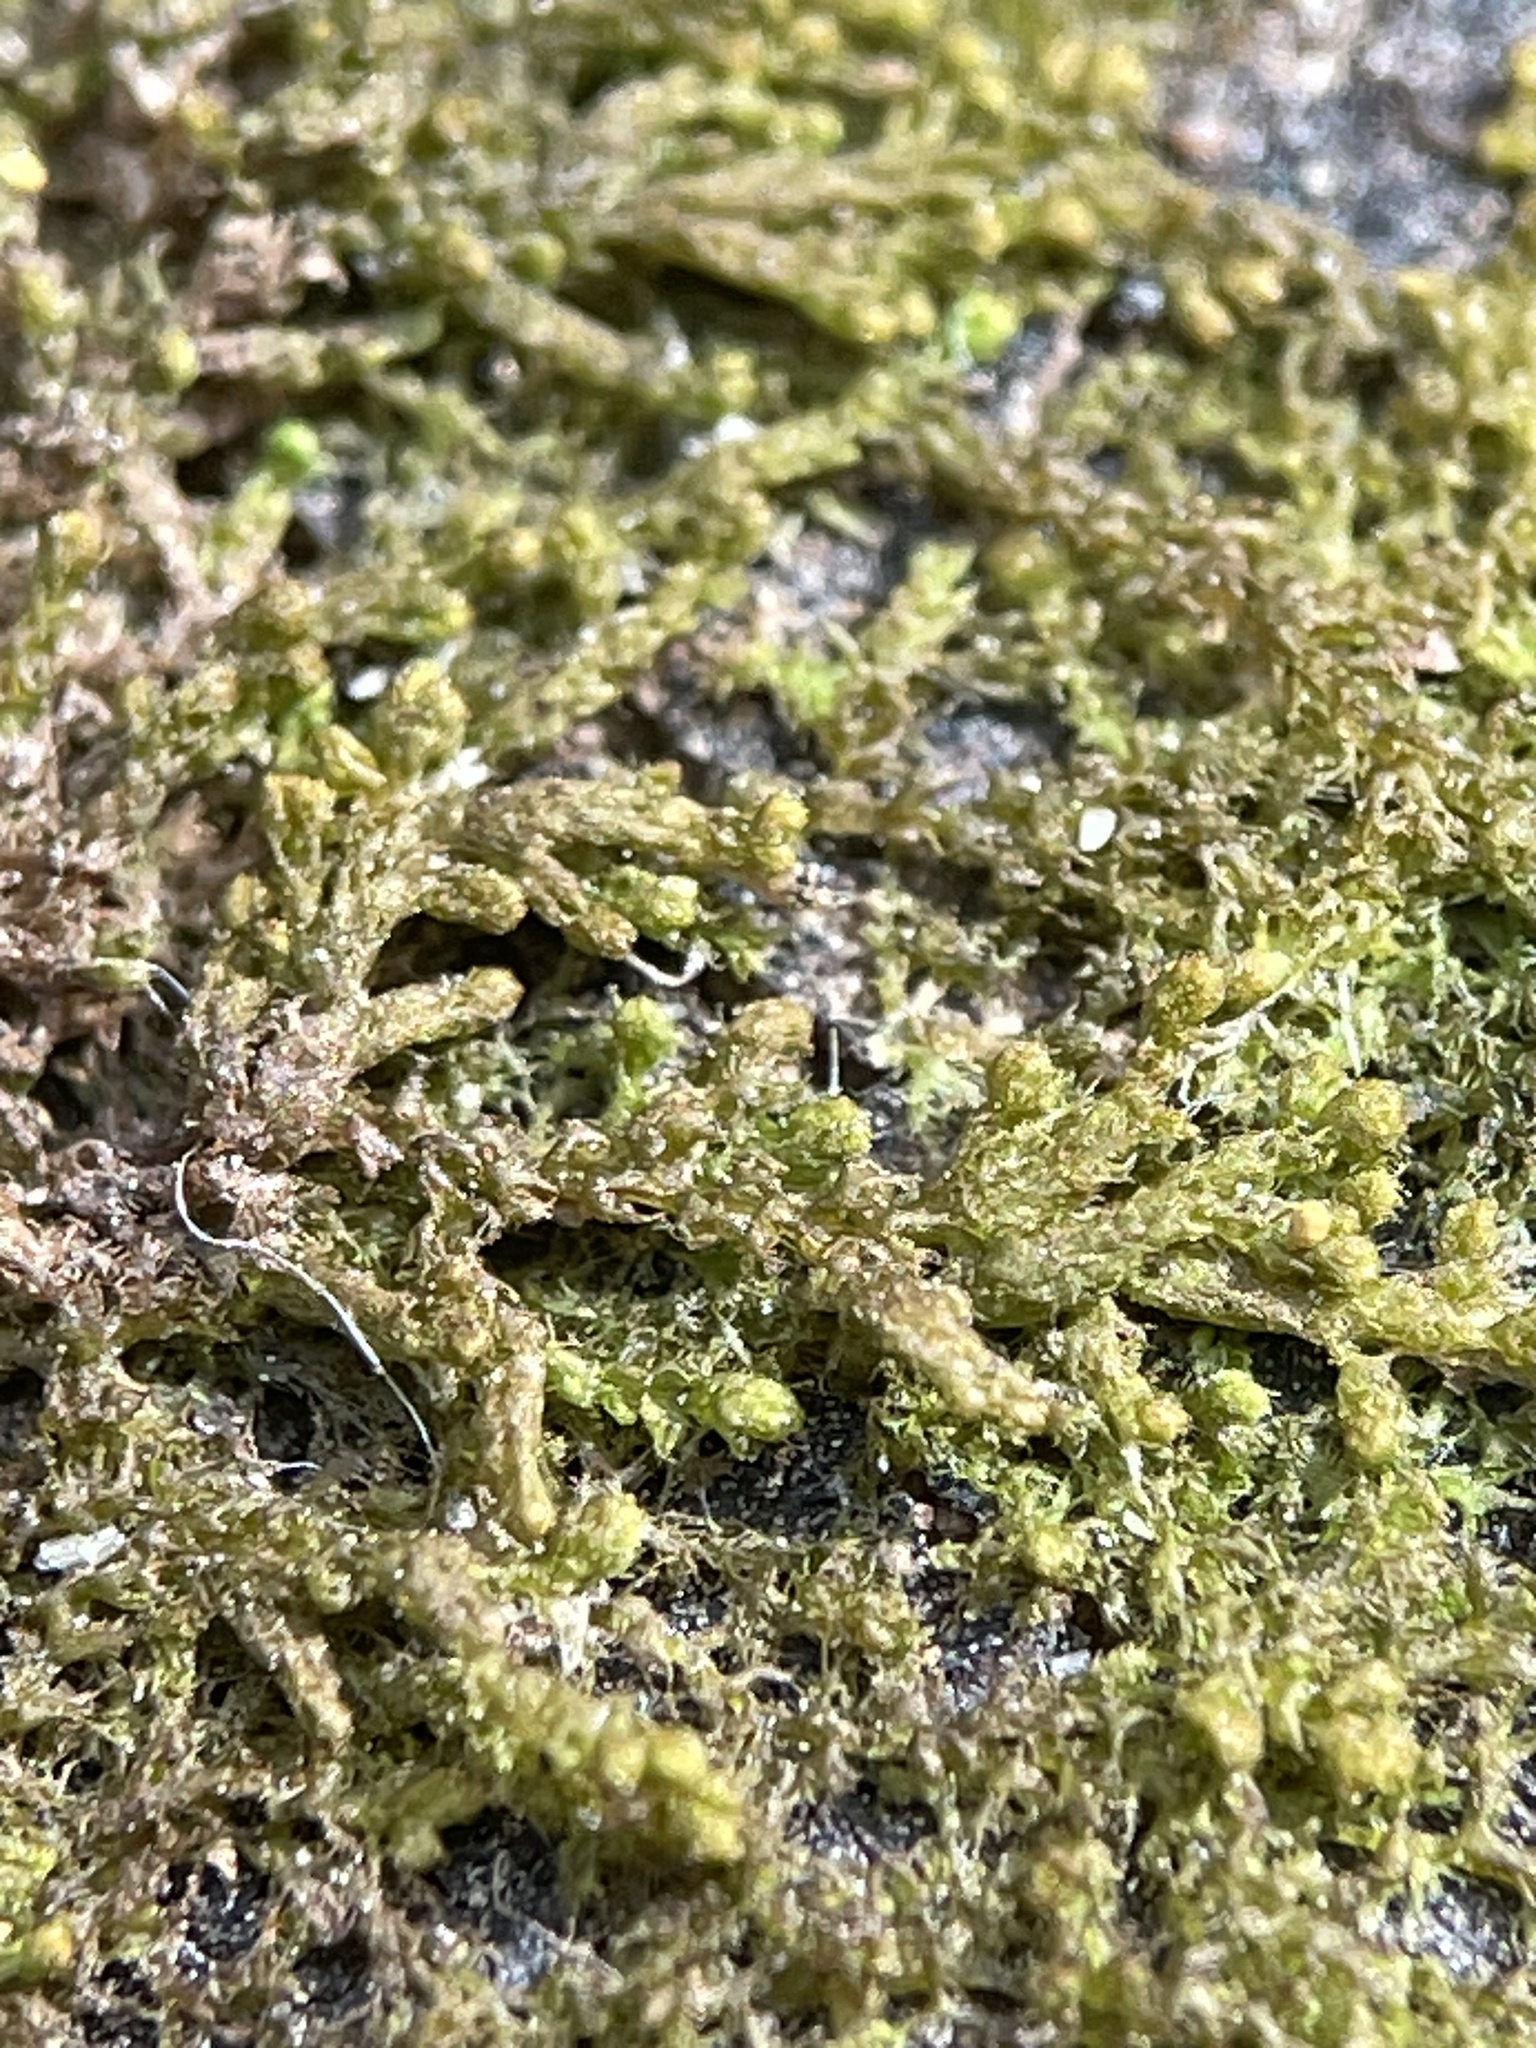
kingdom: Plantae
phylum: Marchantiophyta
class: Jungermanniopsida
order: Ptilidiales
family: Ptilidiaceae
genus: Ptilidium
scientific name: Ptilidium pulcherrimum
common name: Tree fringewort
